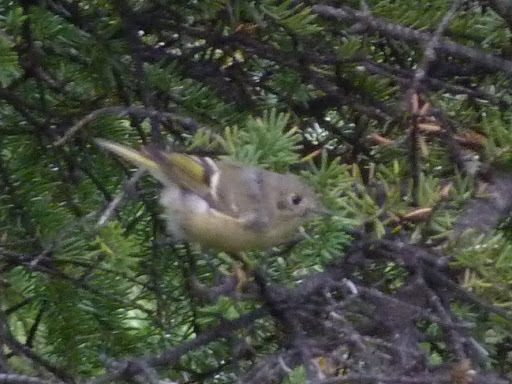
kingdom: Animalia
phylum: Chordata
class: Aves
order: Passeriformes
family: Regulidae
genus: Regulus
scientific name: Regulus calendula
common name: Ruby-crowned kinglet
